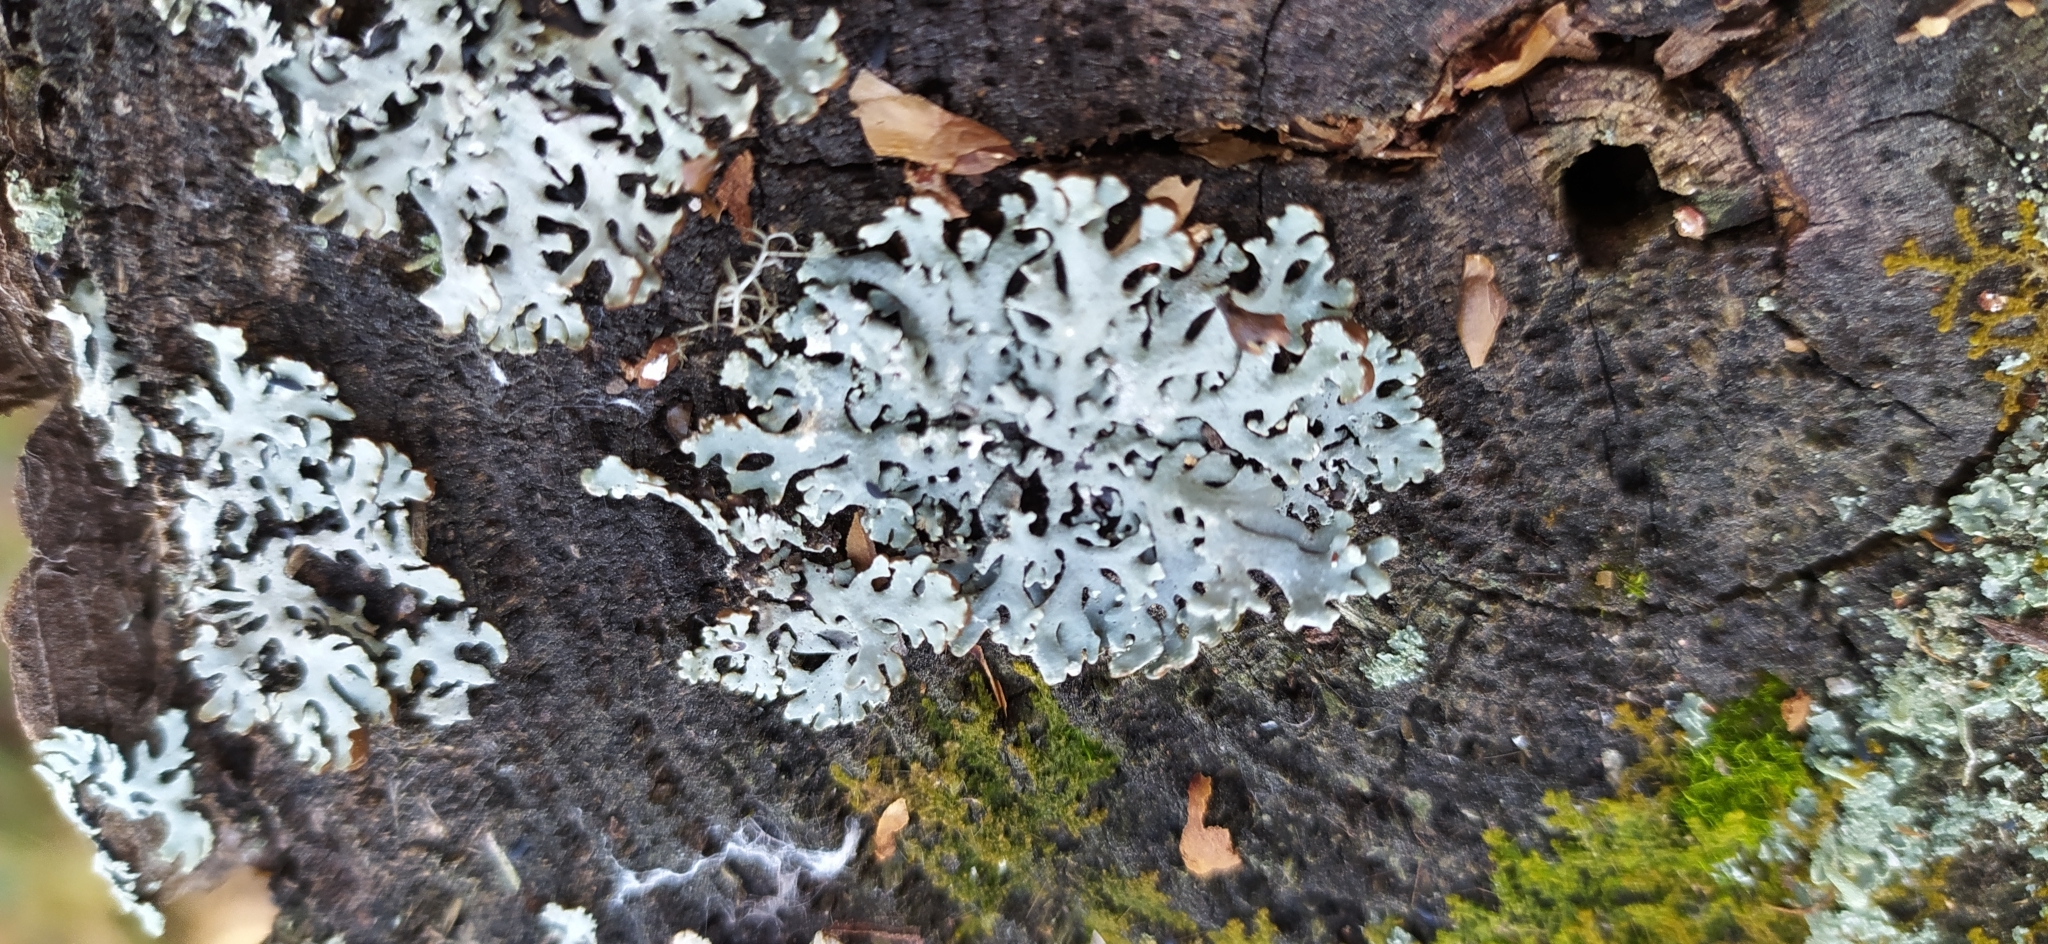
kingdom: Fungi
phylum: Ascomycota
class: Lecanoromycetes
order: Lecanorales
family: Parmeliaceae
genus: Hypogymnia
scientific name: Hypogymnia physodes
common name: Dark crottle
